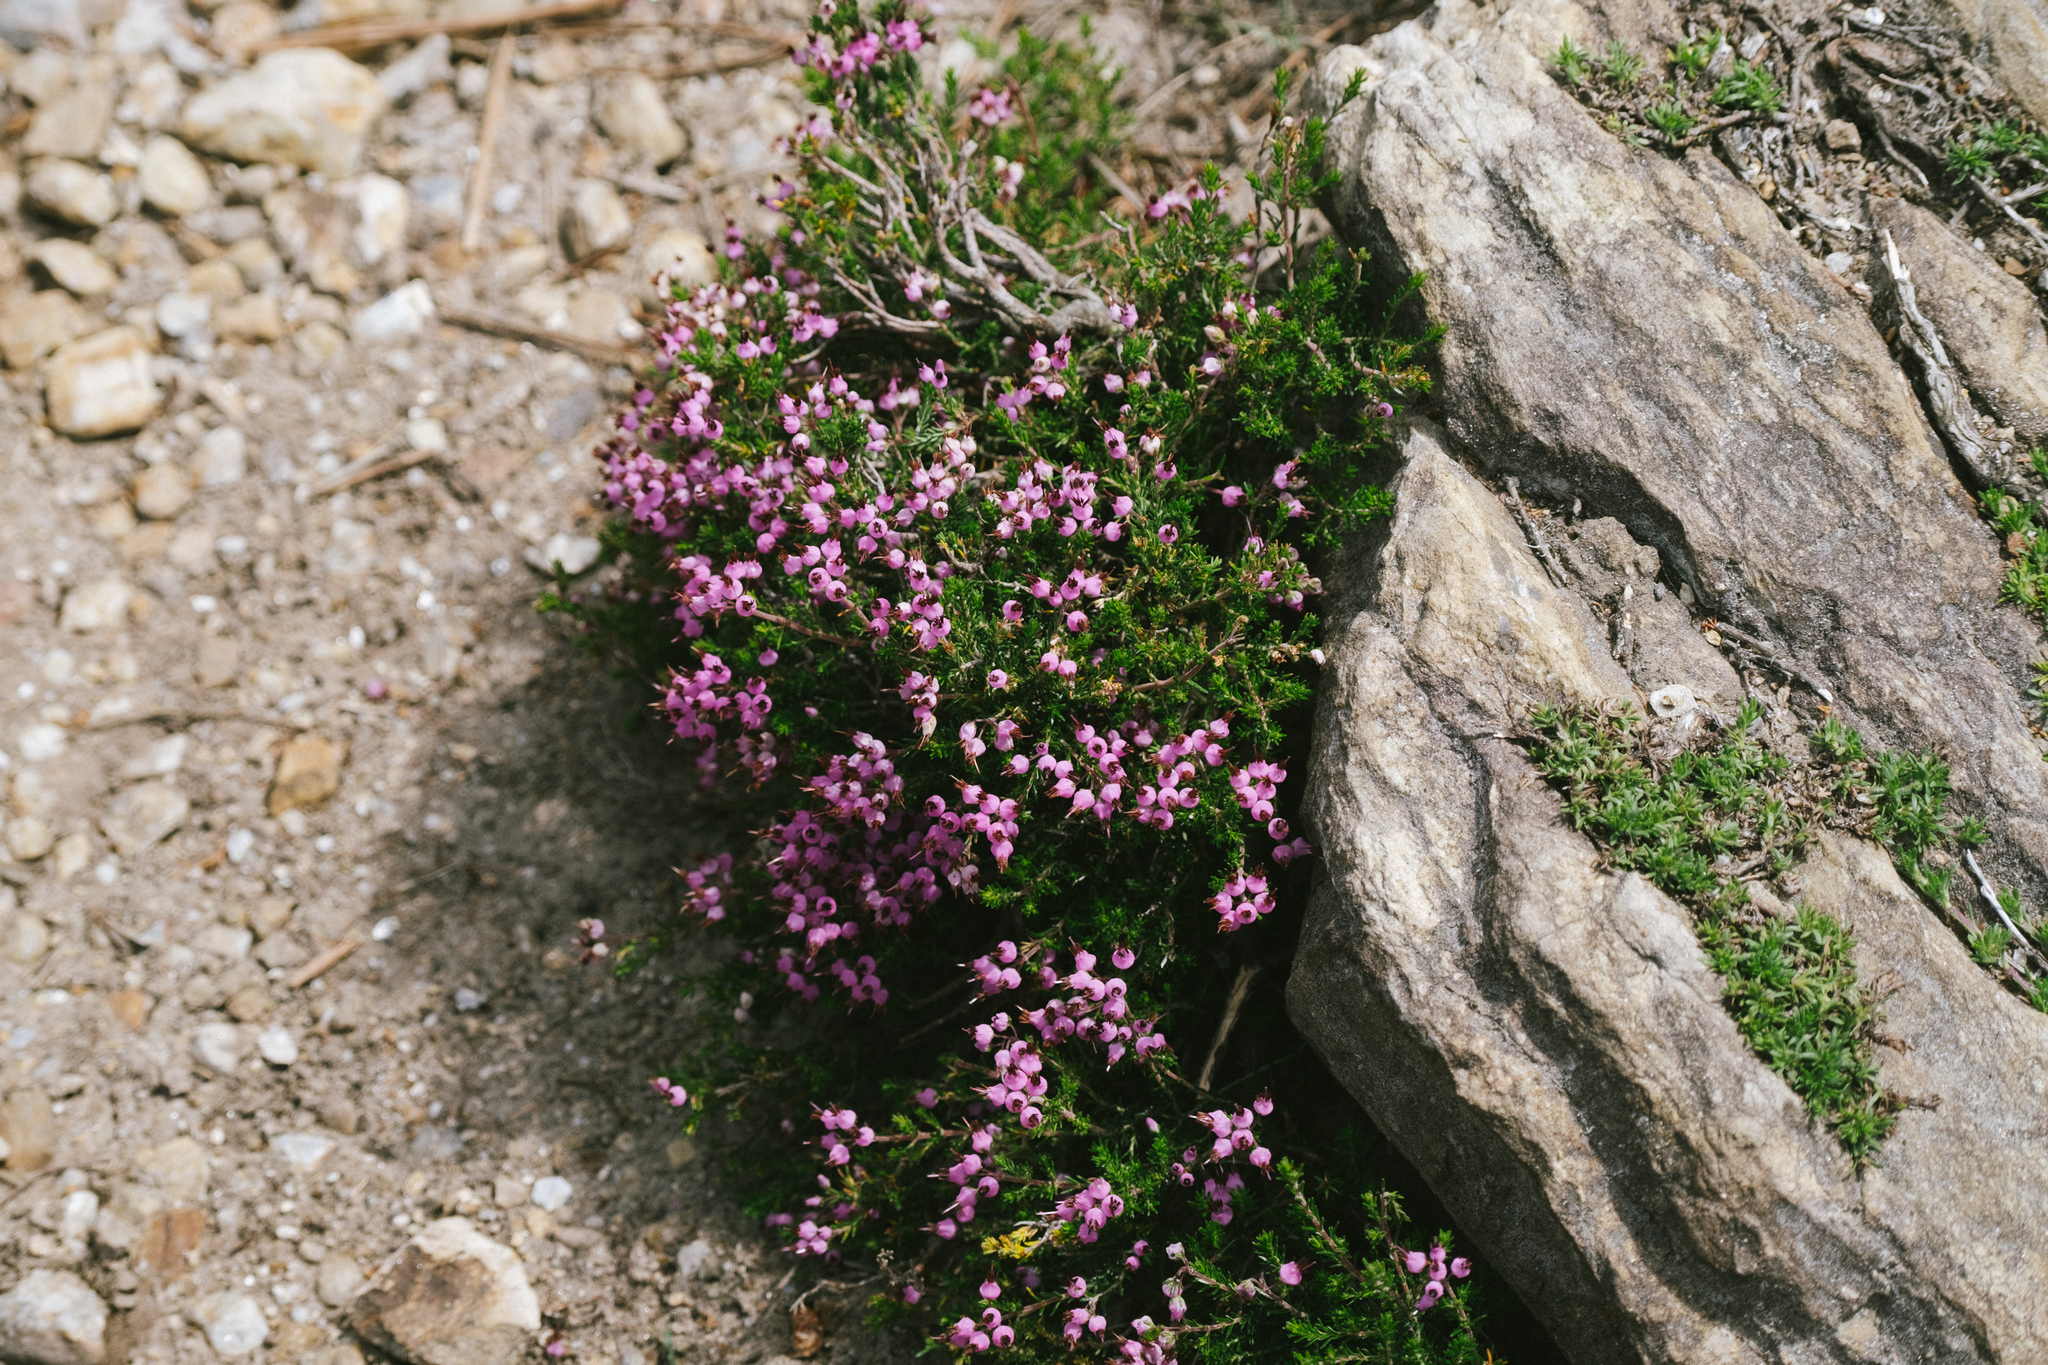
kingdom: Plantae
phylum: Tracheophyta
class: Magnoliopsida
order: Ericales
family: Ericaceae
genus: Erica
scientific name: Erica umbellata
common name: Dwarf spanish heath
